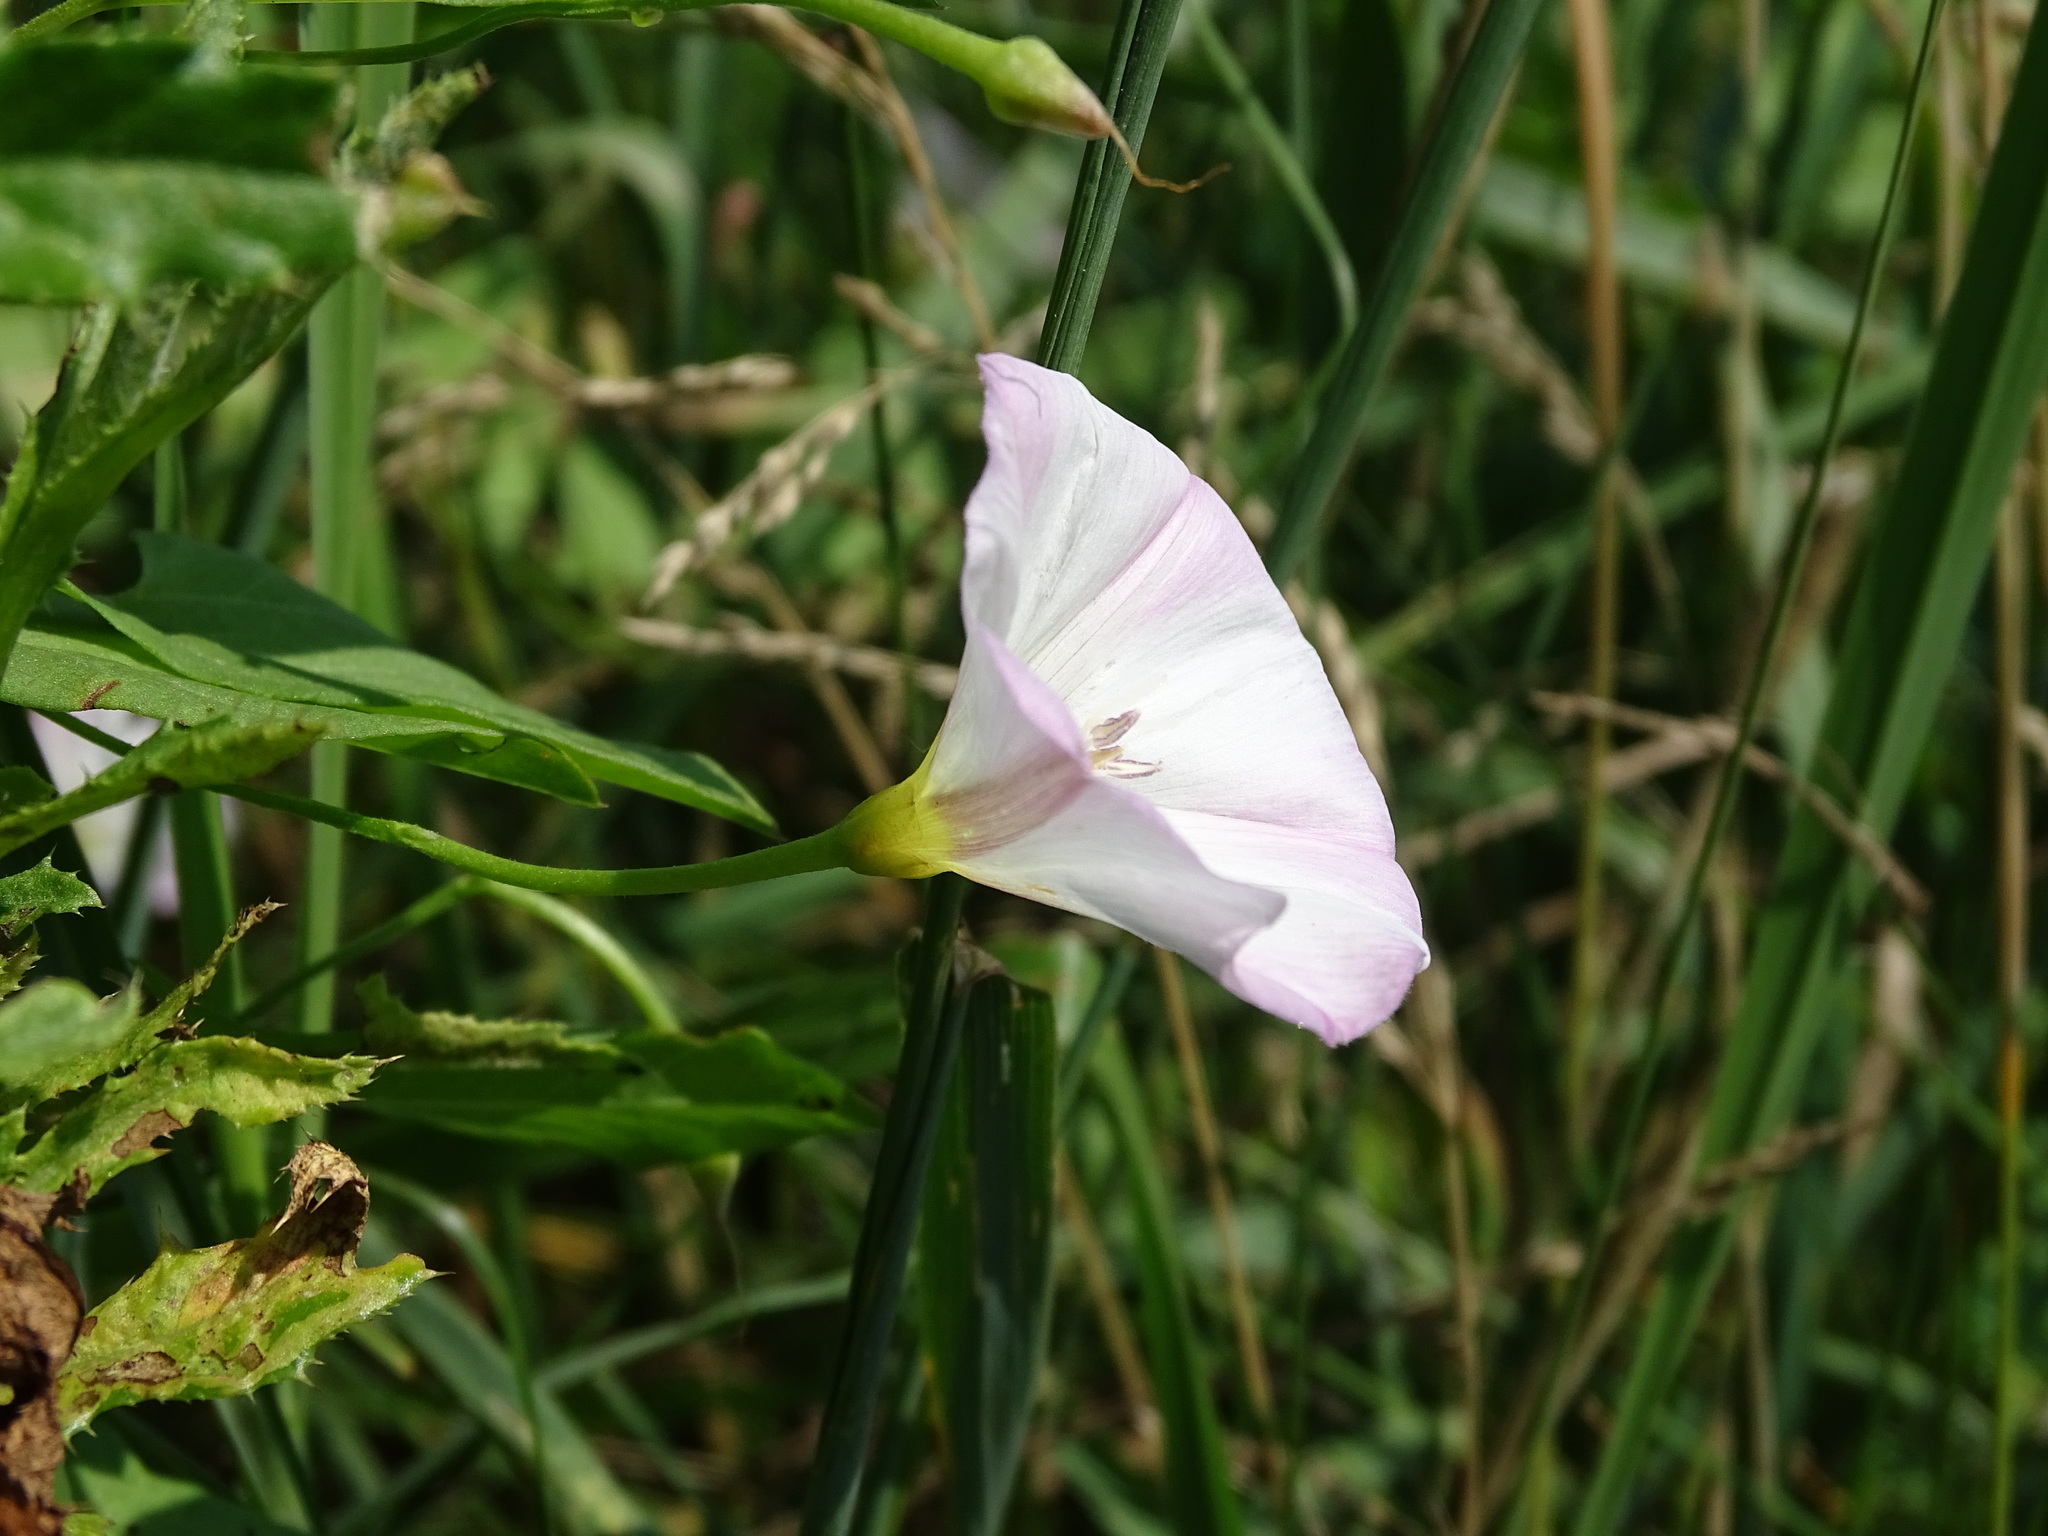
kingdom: Plantae
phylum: Tracheophyta
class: Magnoliopsida
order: Solanales
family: Convolvulaceae
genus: Convolvulus
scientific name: Convolvulus arvensis
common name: Field bindweed
